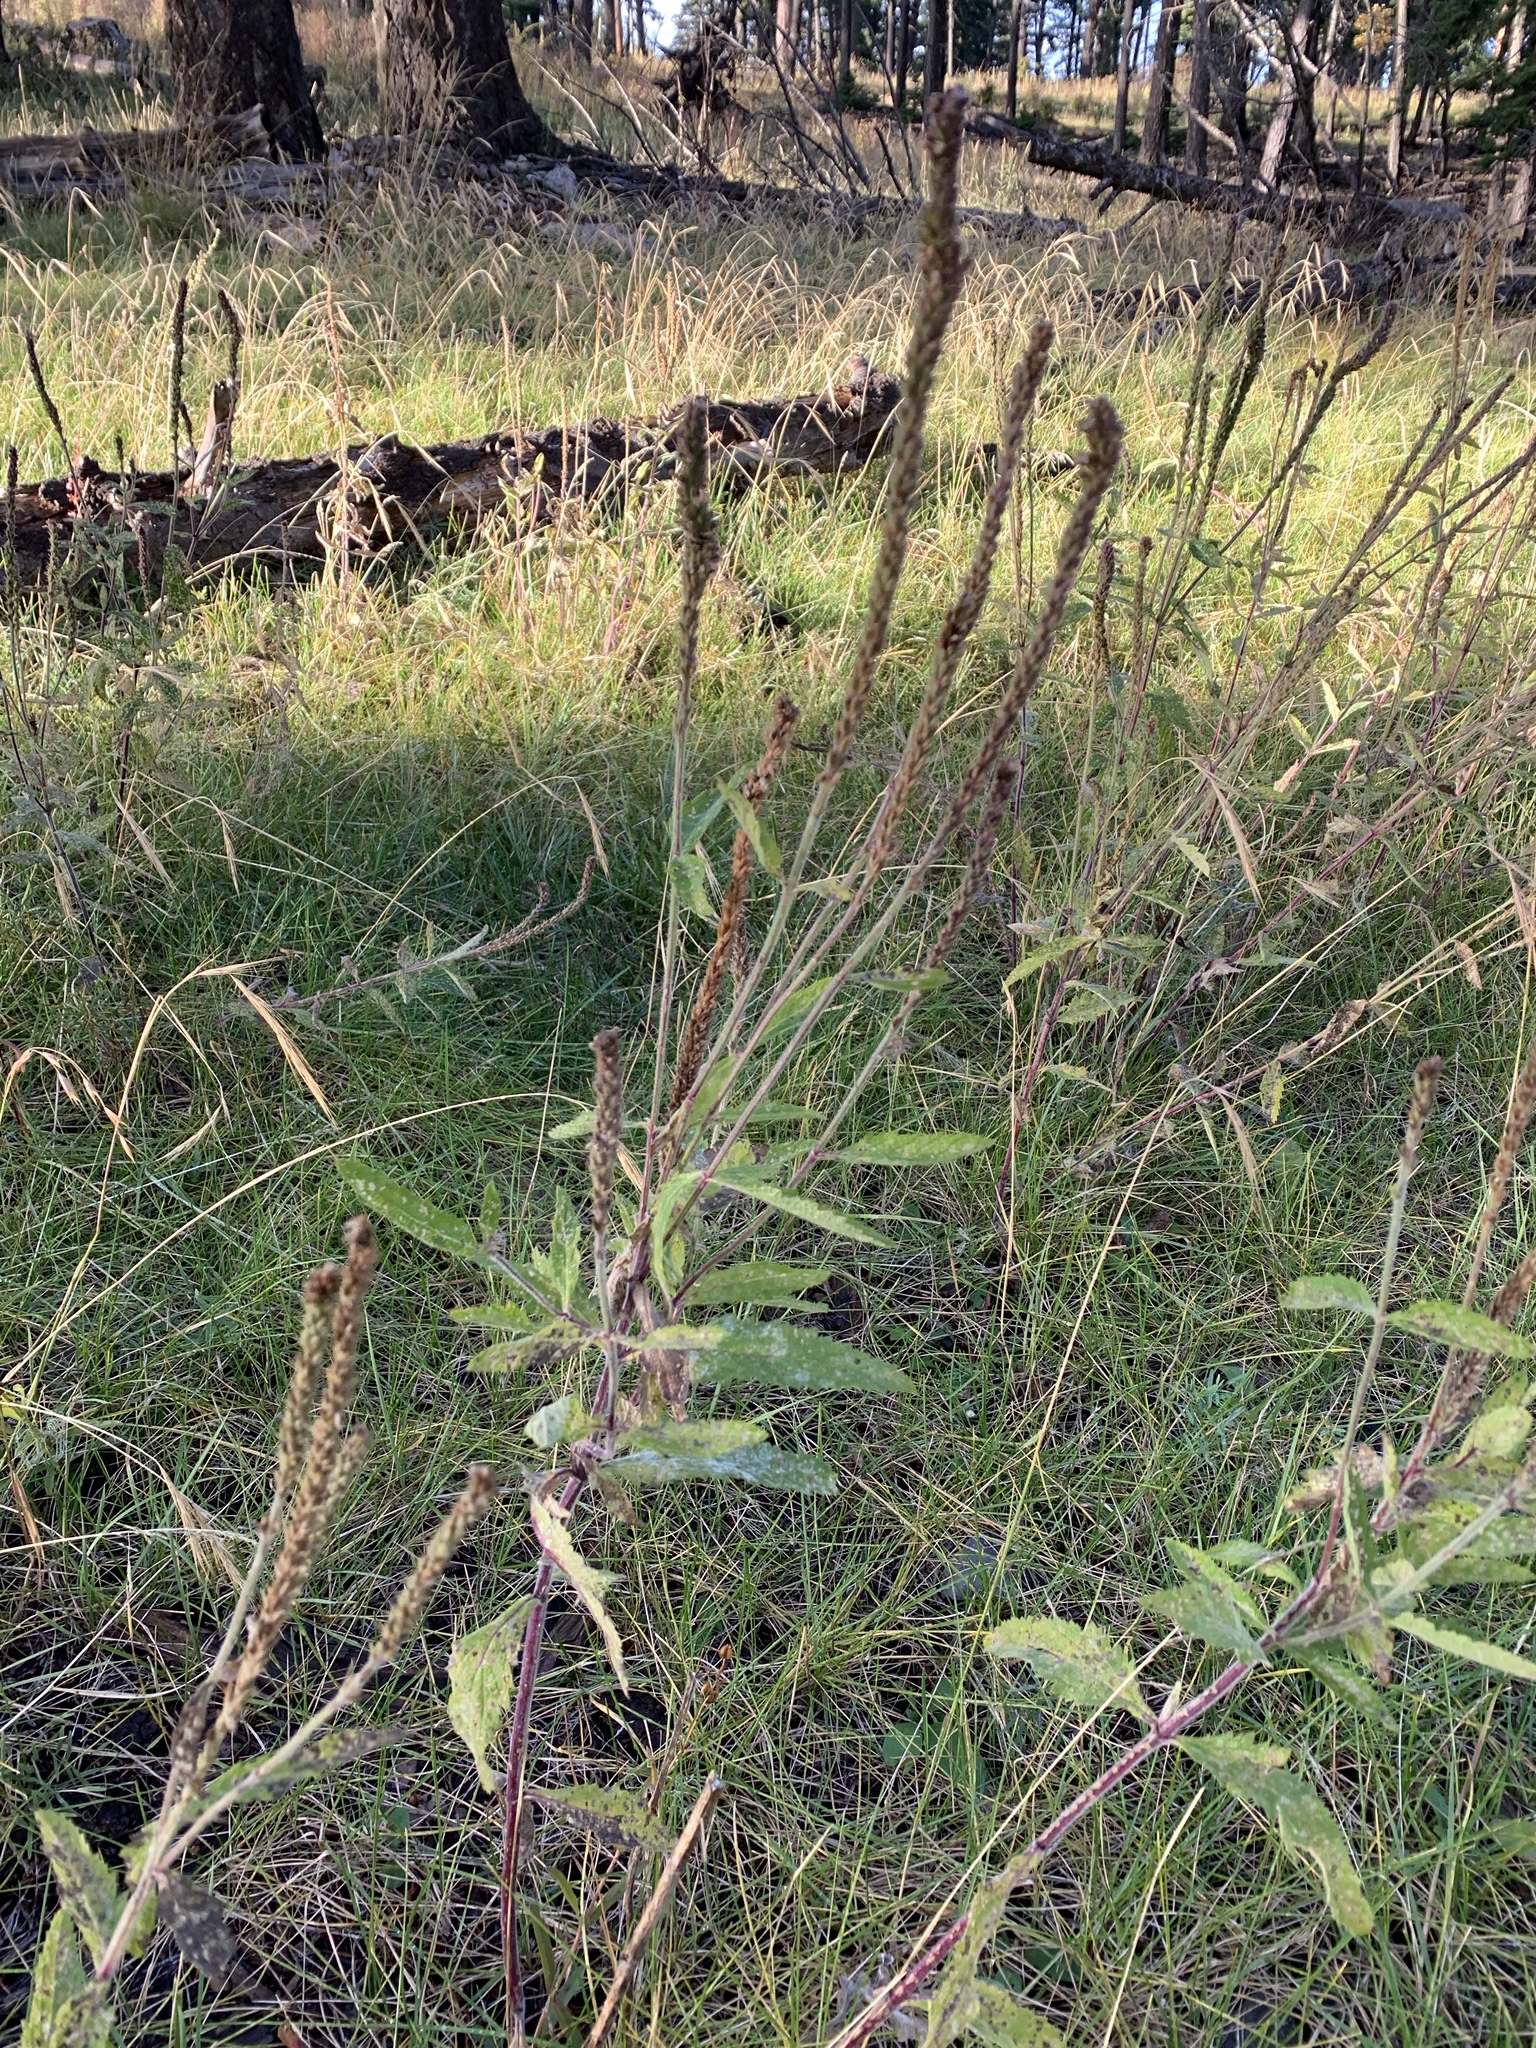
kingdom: Plantae
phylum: Tracheophyta
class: Magnoliopsida
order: Lamiales
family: Verbenaceae
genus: Verbena
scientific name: Verbena macdougalii
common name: New mexico vervain
